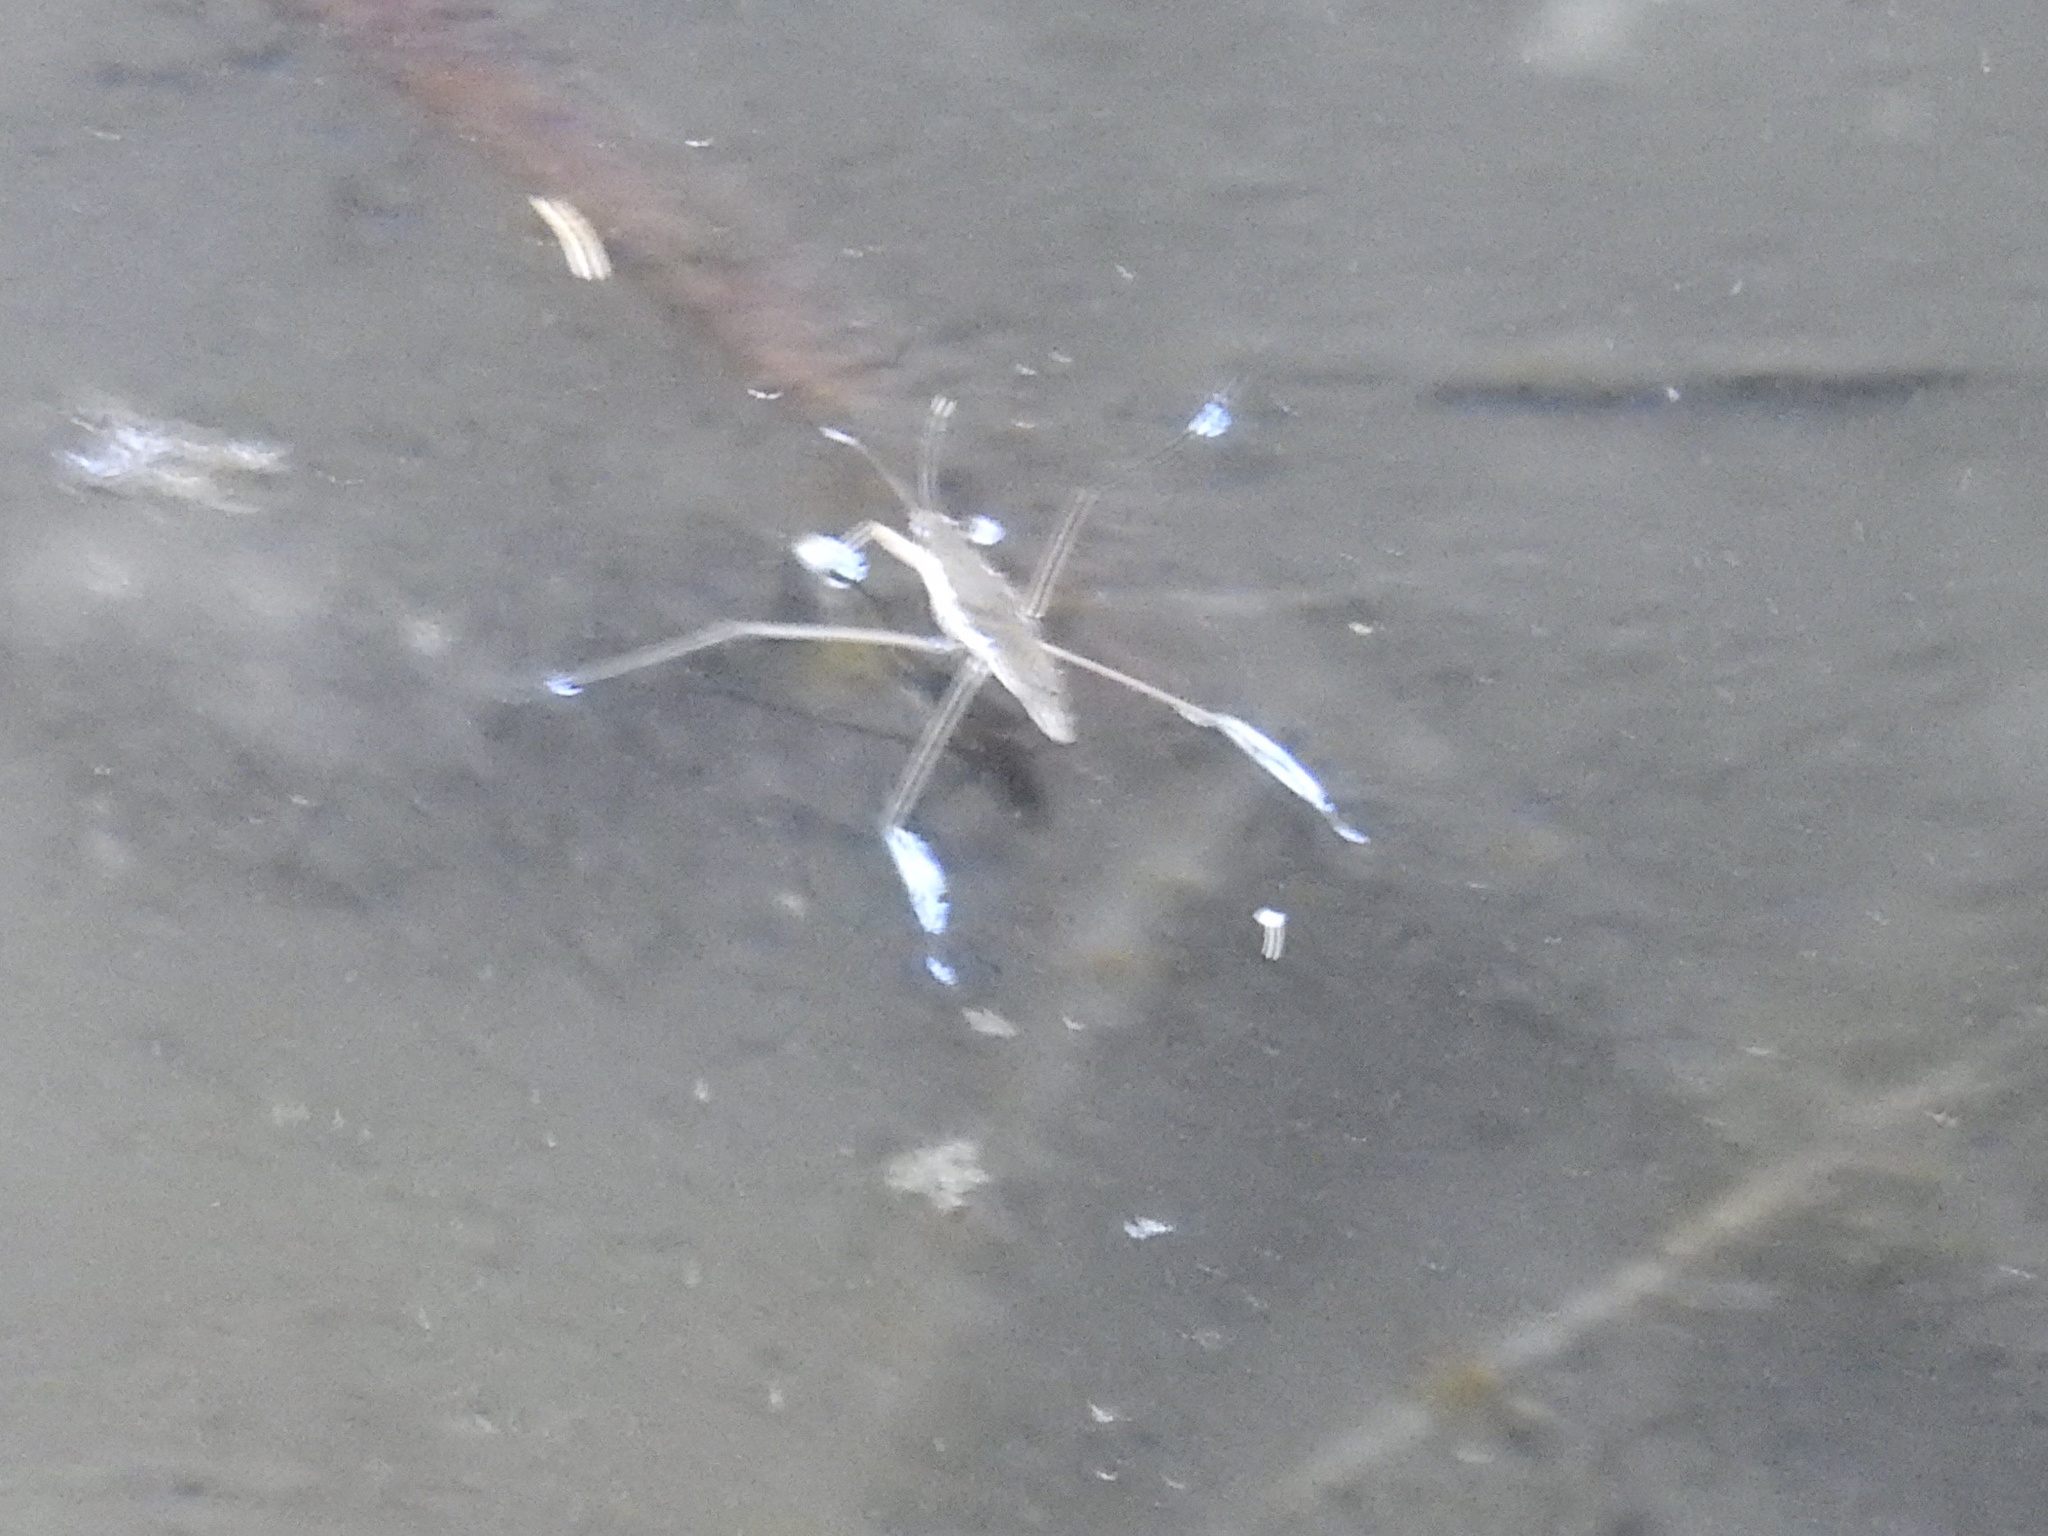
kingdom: Animalia
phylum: Arthropoda
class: Insecta
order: Hemiptera
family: Gerridae
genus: Aquarius
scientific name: Aquarius remigis
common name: Common water strider
